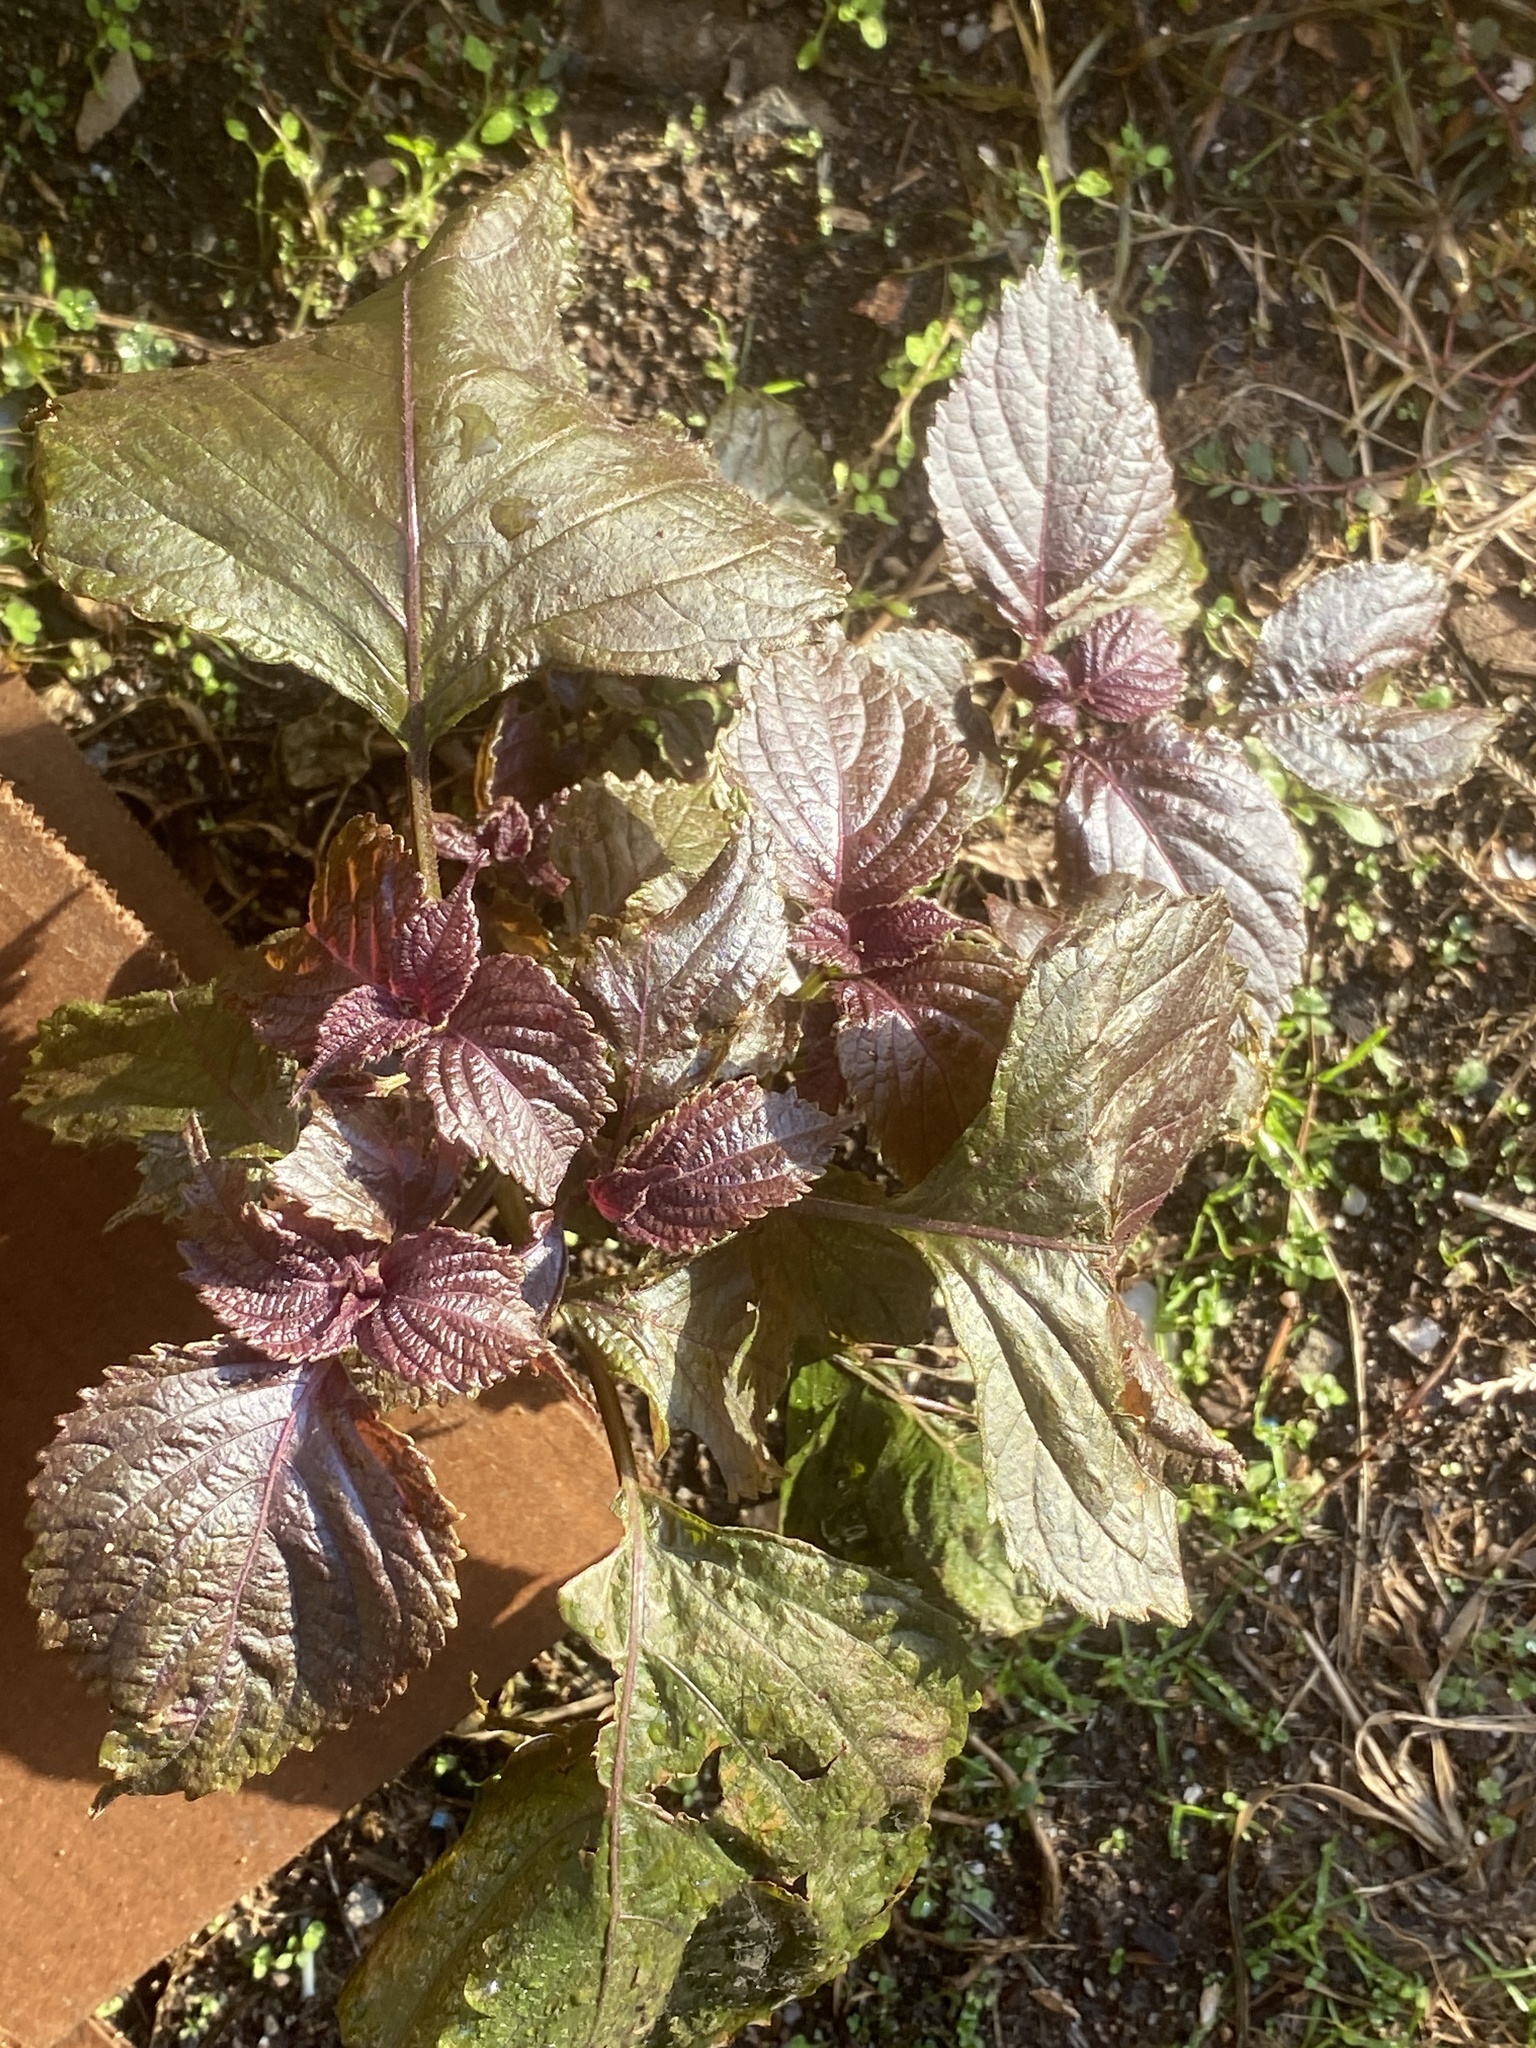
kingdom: Plantae
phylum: Tracheophyta
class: Magnoliopsida
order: Lamiales
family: Lamiaceae
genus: Perilla
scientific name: Perilla frutescens
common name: Perilla
